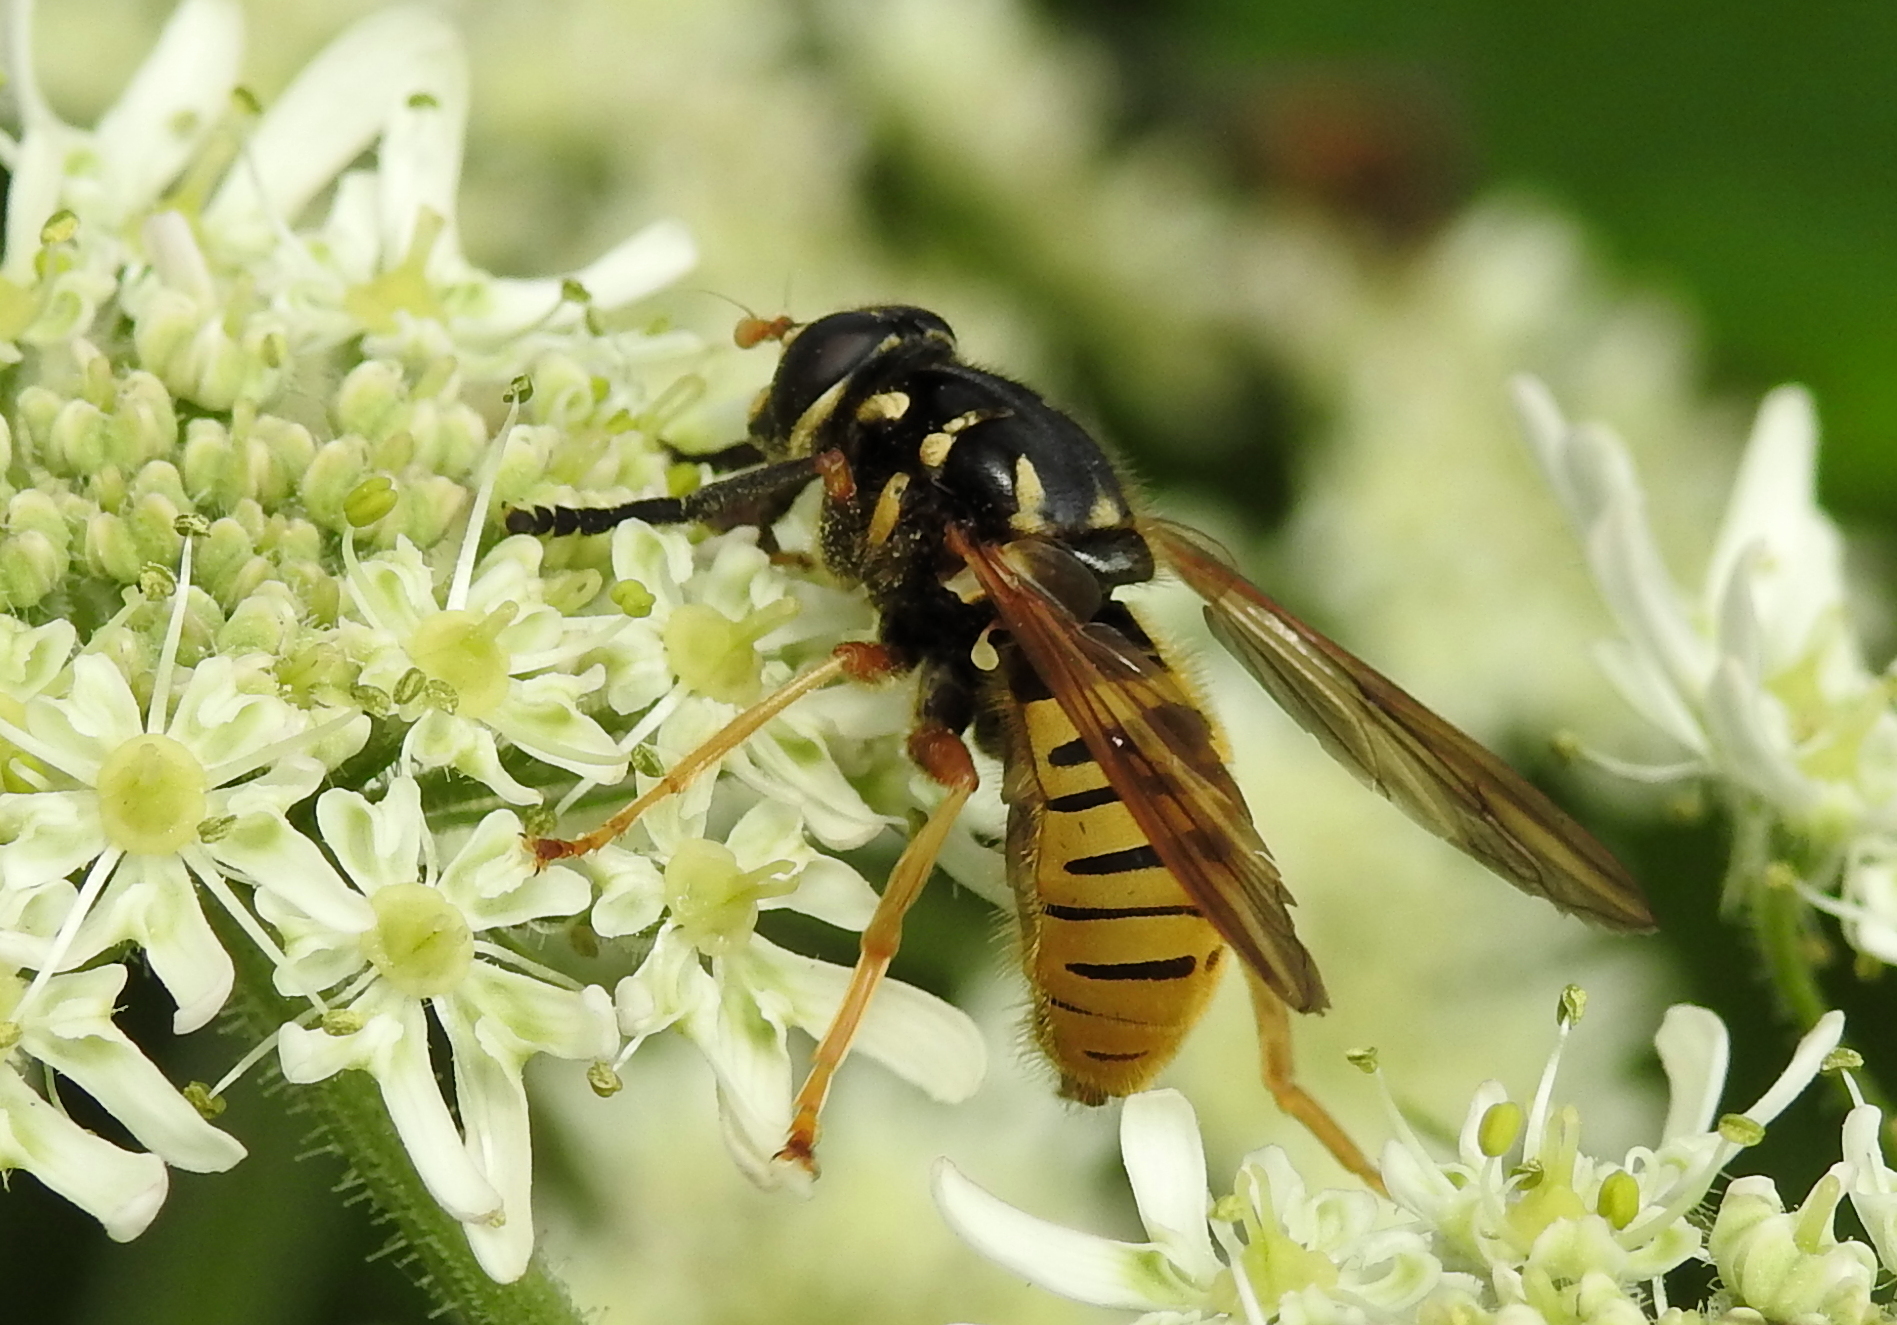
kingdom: Animalia
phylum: Arthropoda
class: Insecta
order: Diptera
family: Syrphidae
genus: Temnostoma
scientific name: Temnostoma vespiforme
